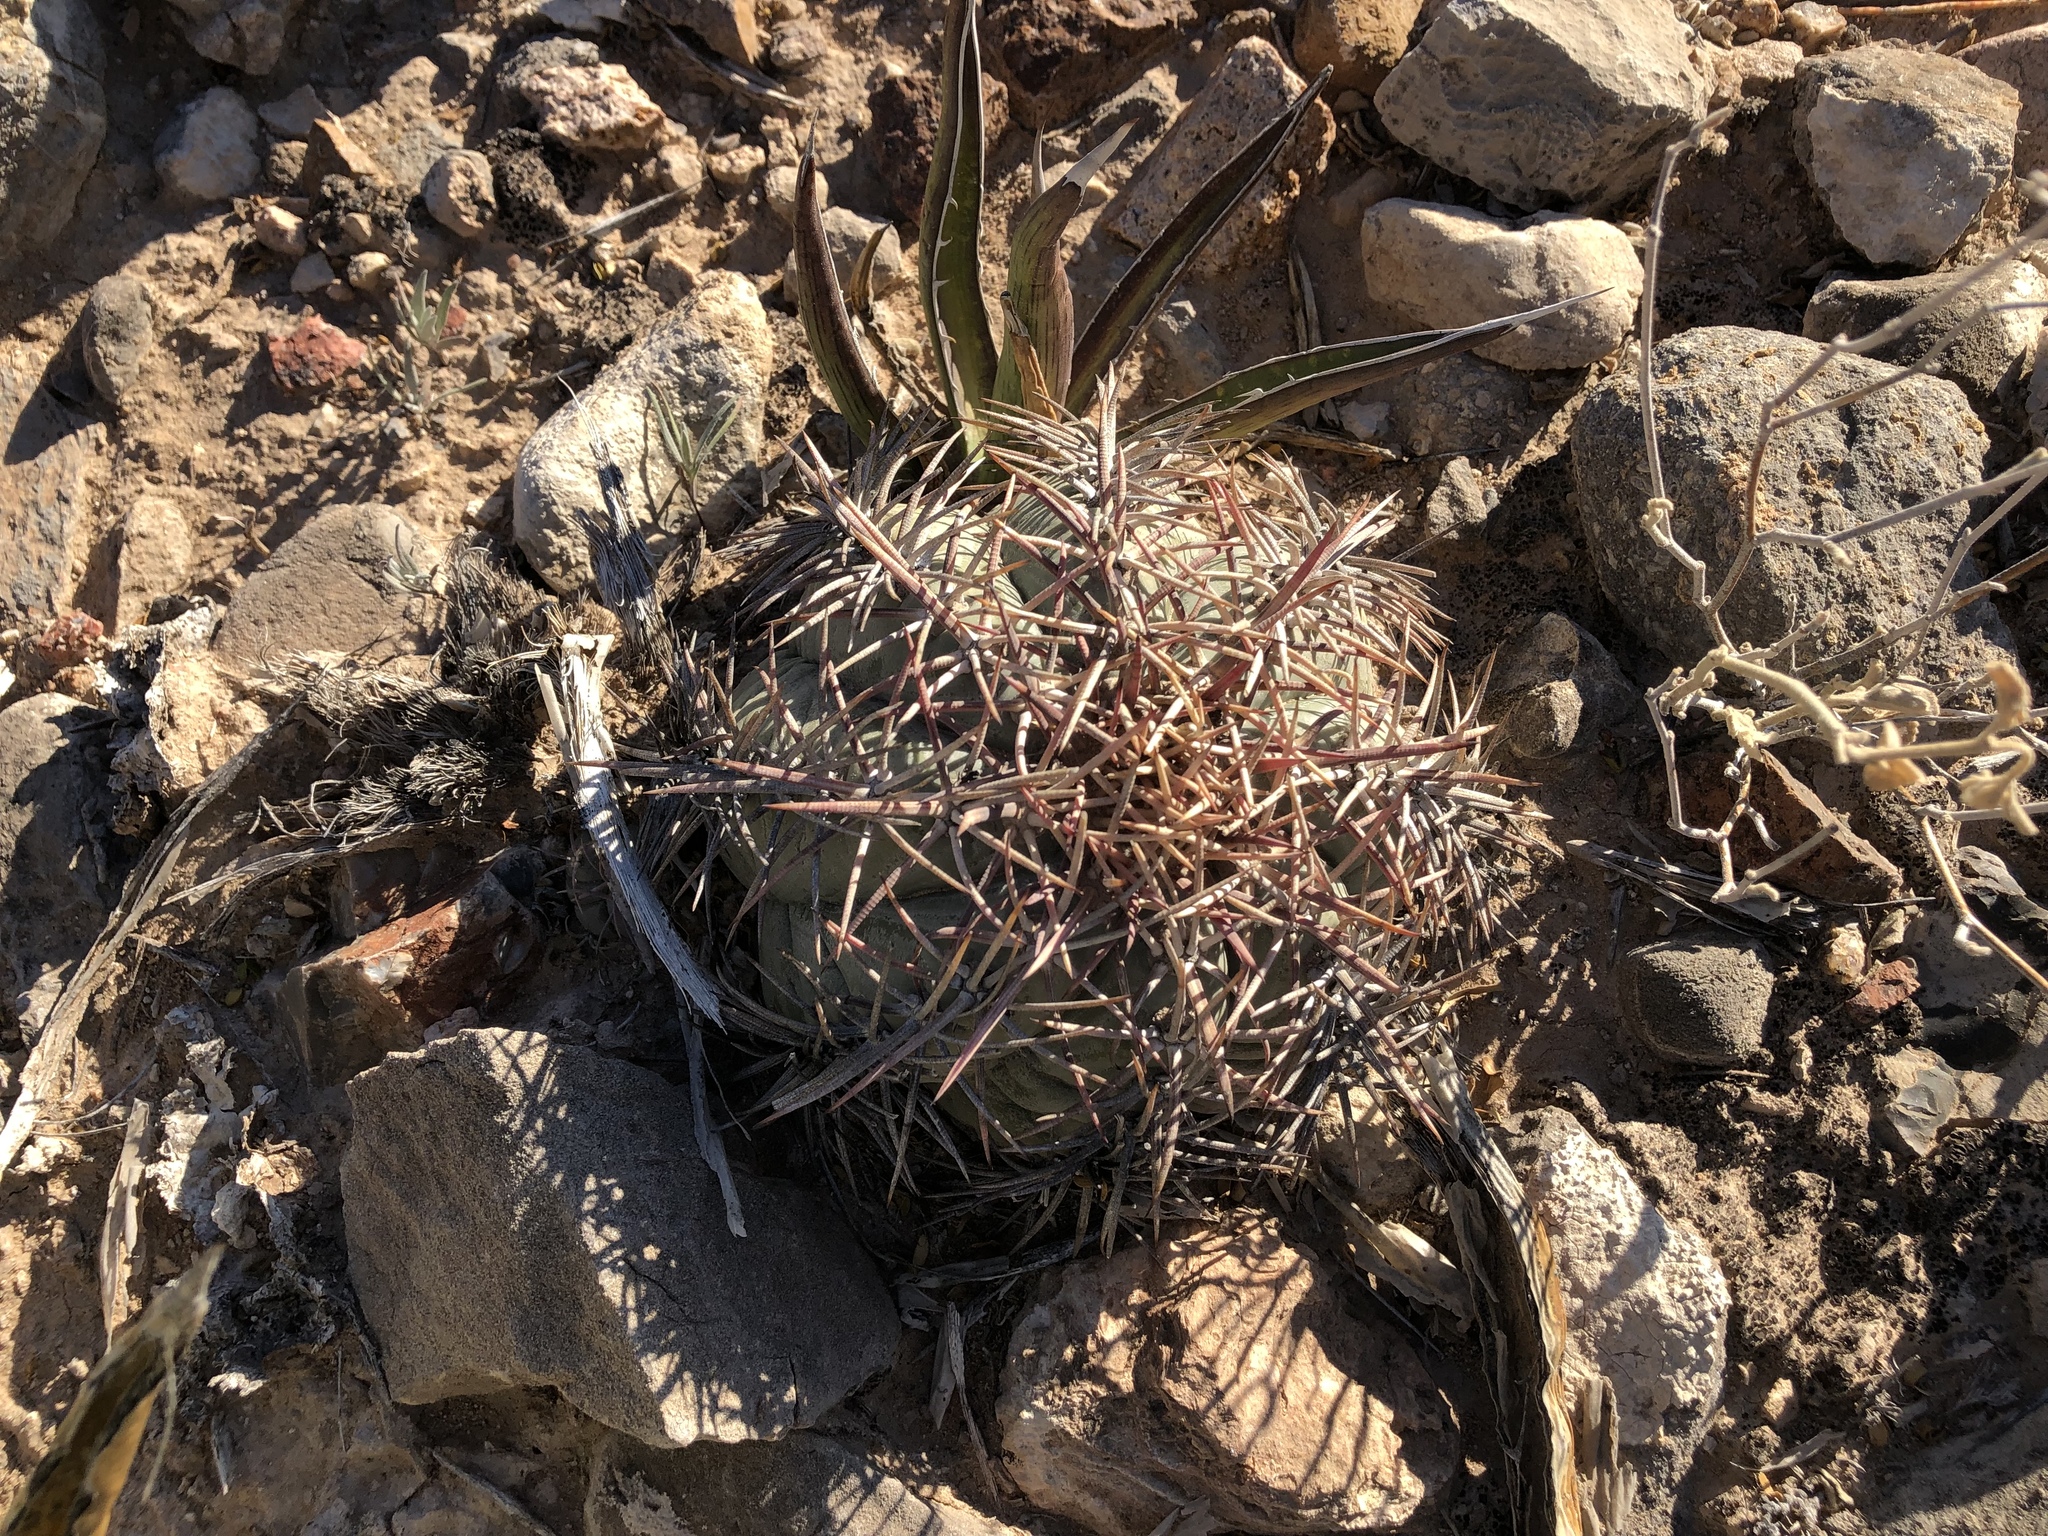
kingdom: Plantae
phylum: Tracheophyta
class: Magnoliopsida
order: Caryophyllales
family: Cactaceae
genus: Echinocactus
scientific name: Echinocactus horizonthalonius
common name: Devilshead
